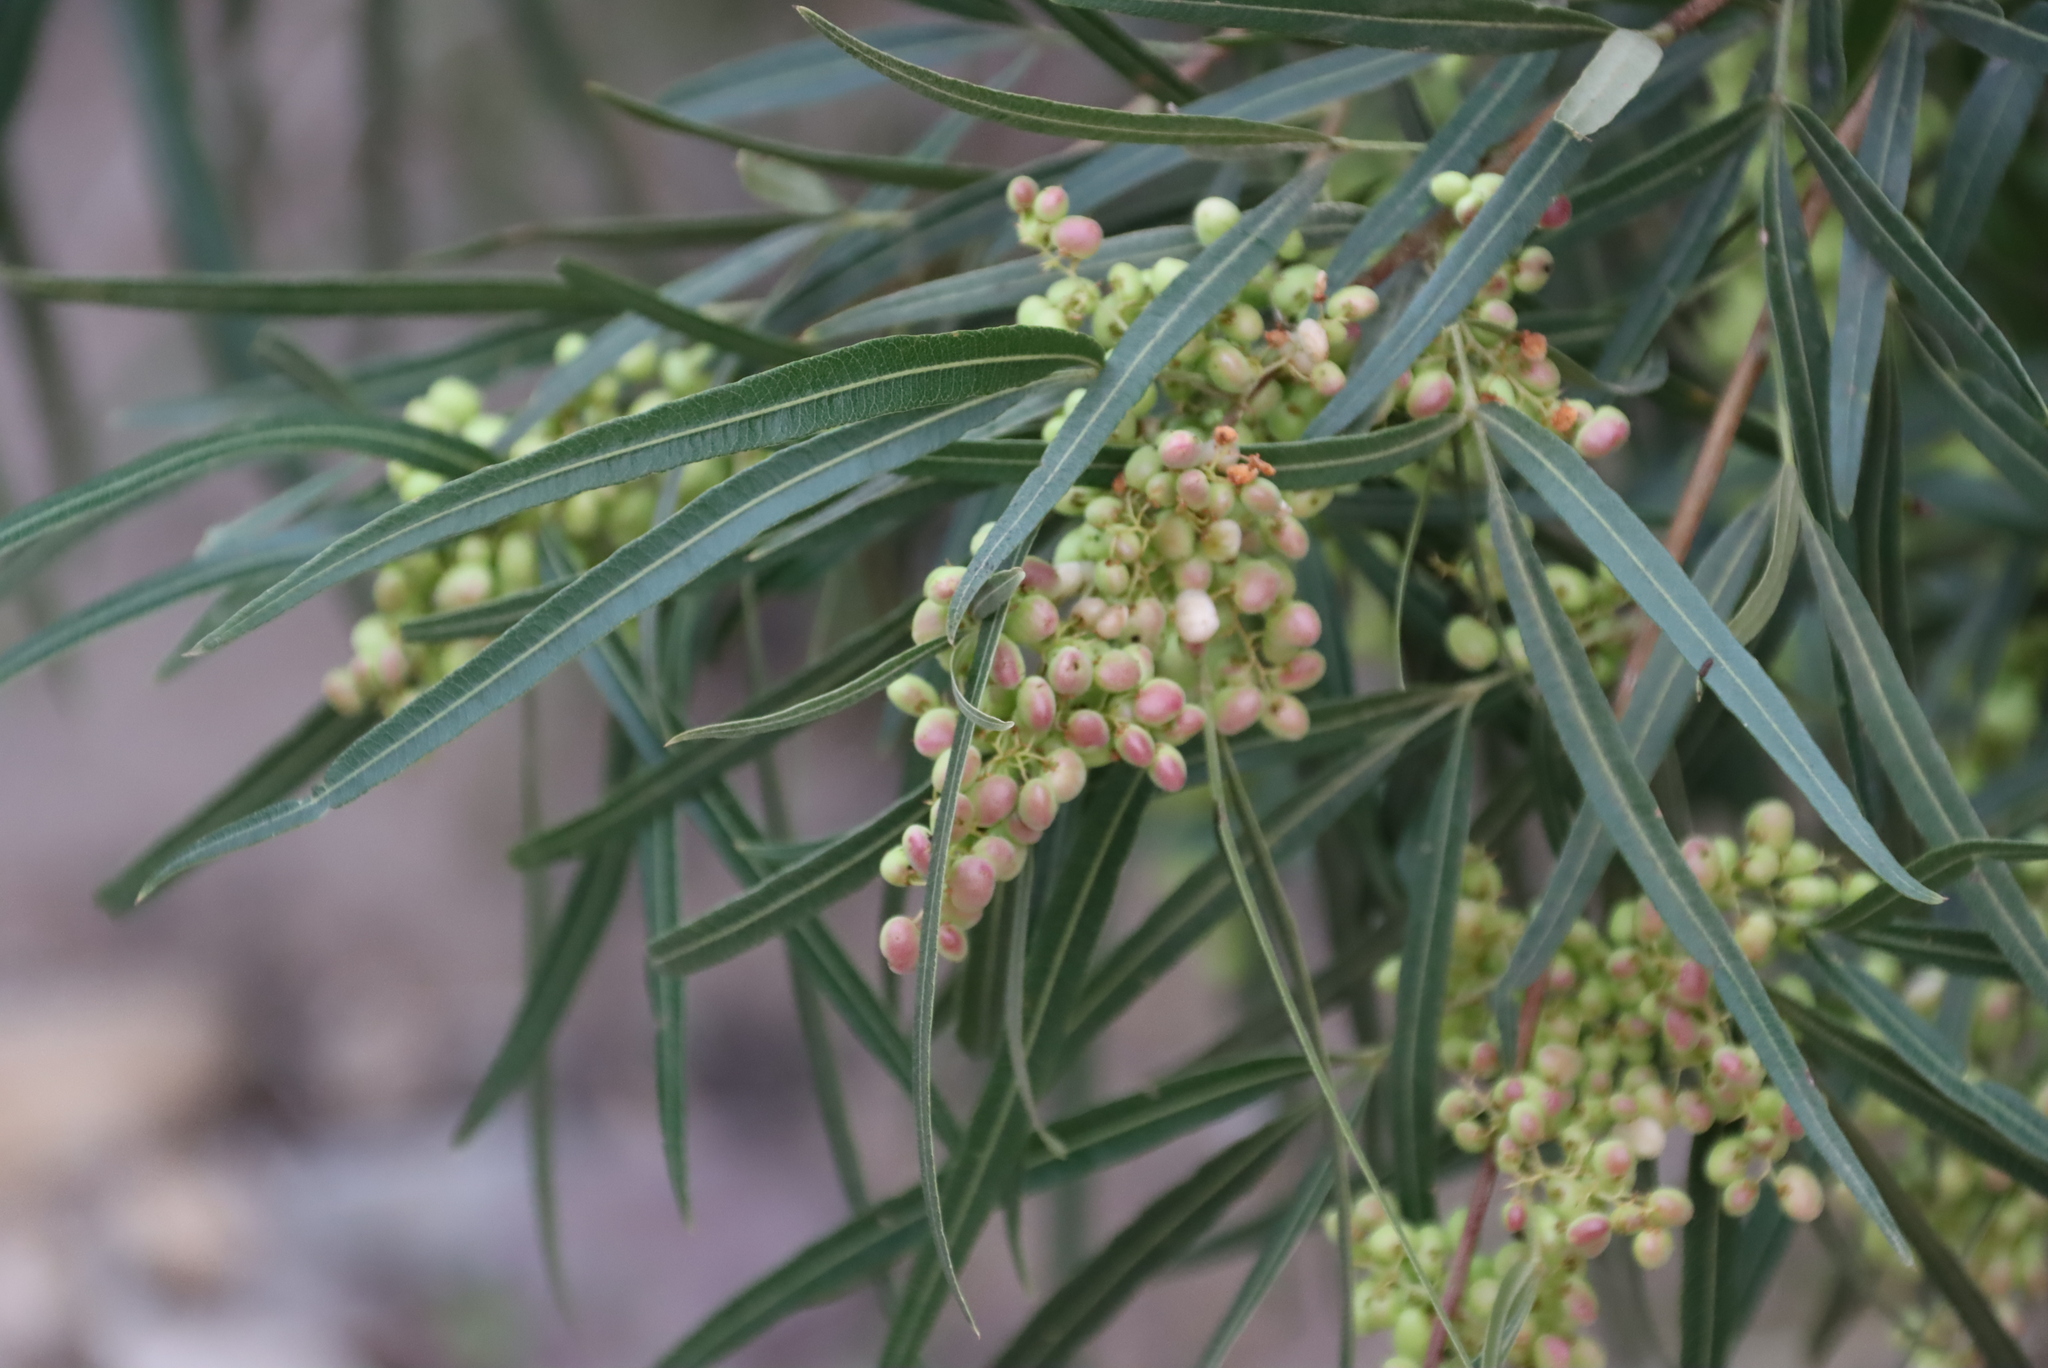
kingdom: Plantae
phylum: Tracheophyta
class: Magnoliopsida
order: Sapindales
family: Anacardiaceae
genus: Searsia
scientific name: Searsia lancea
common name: Cashew
